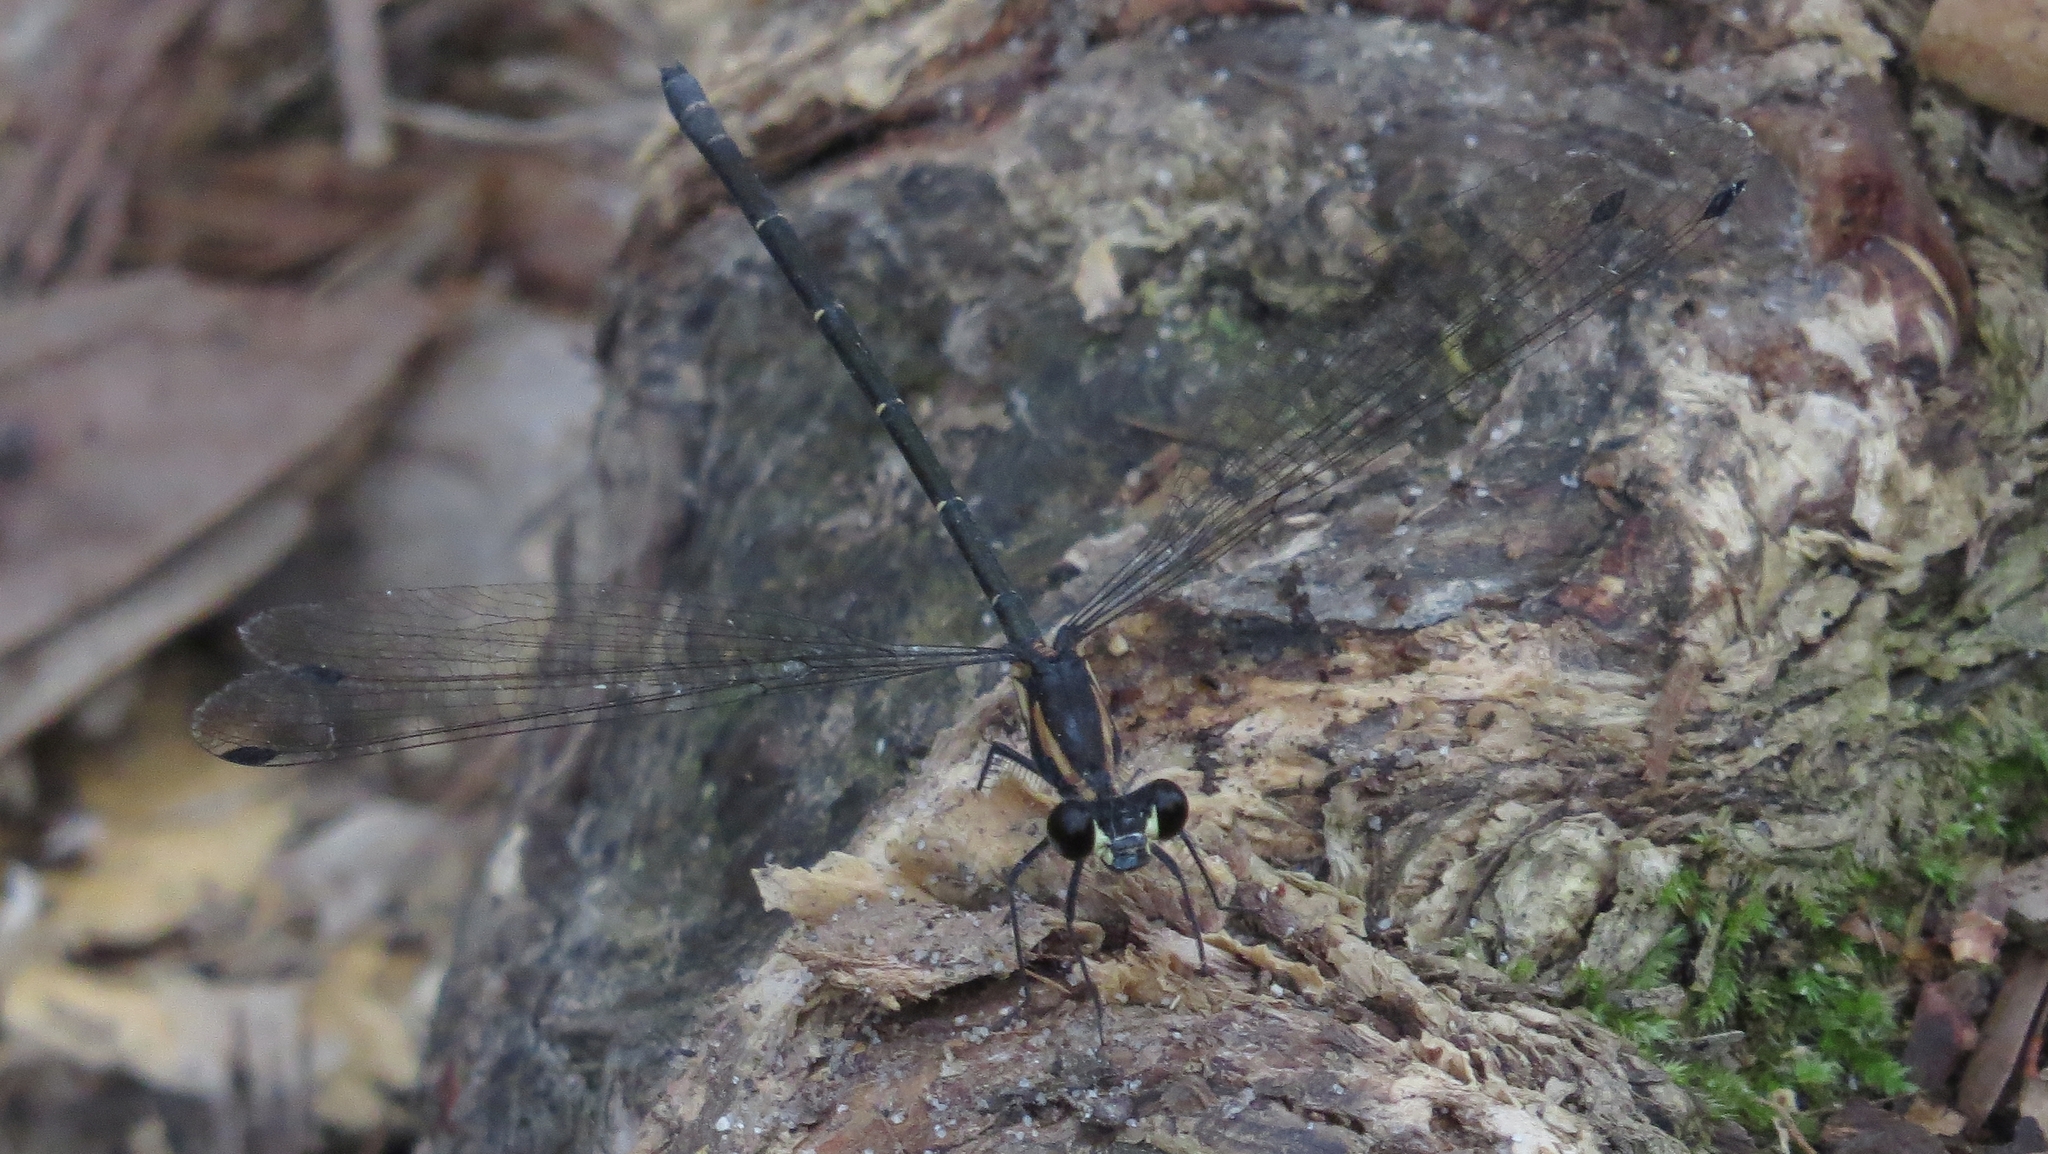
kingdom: Animalia
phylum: Arthropoda
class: Insecta
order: Odonata
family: Argiolestidae
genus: Austroargiolestes
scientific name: Austroargiolestes icteromelas
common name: Common flatwing
